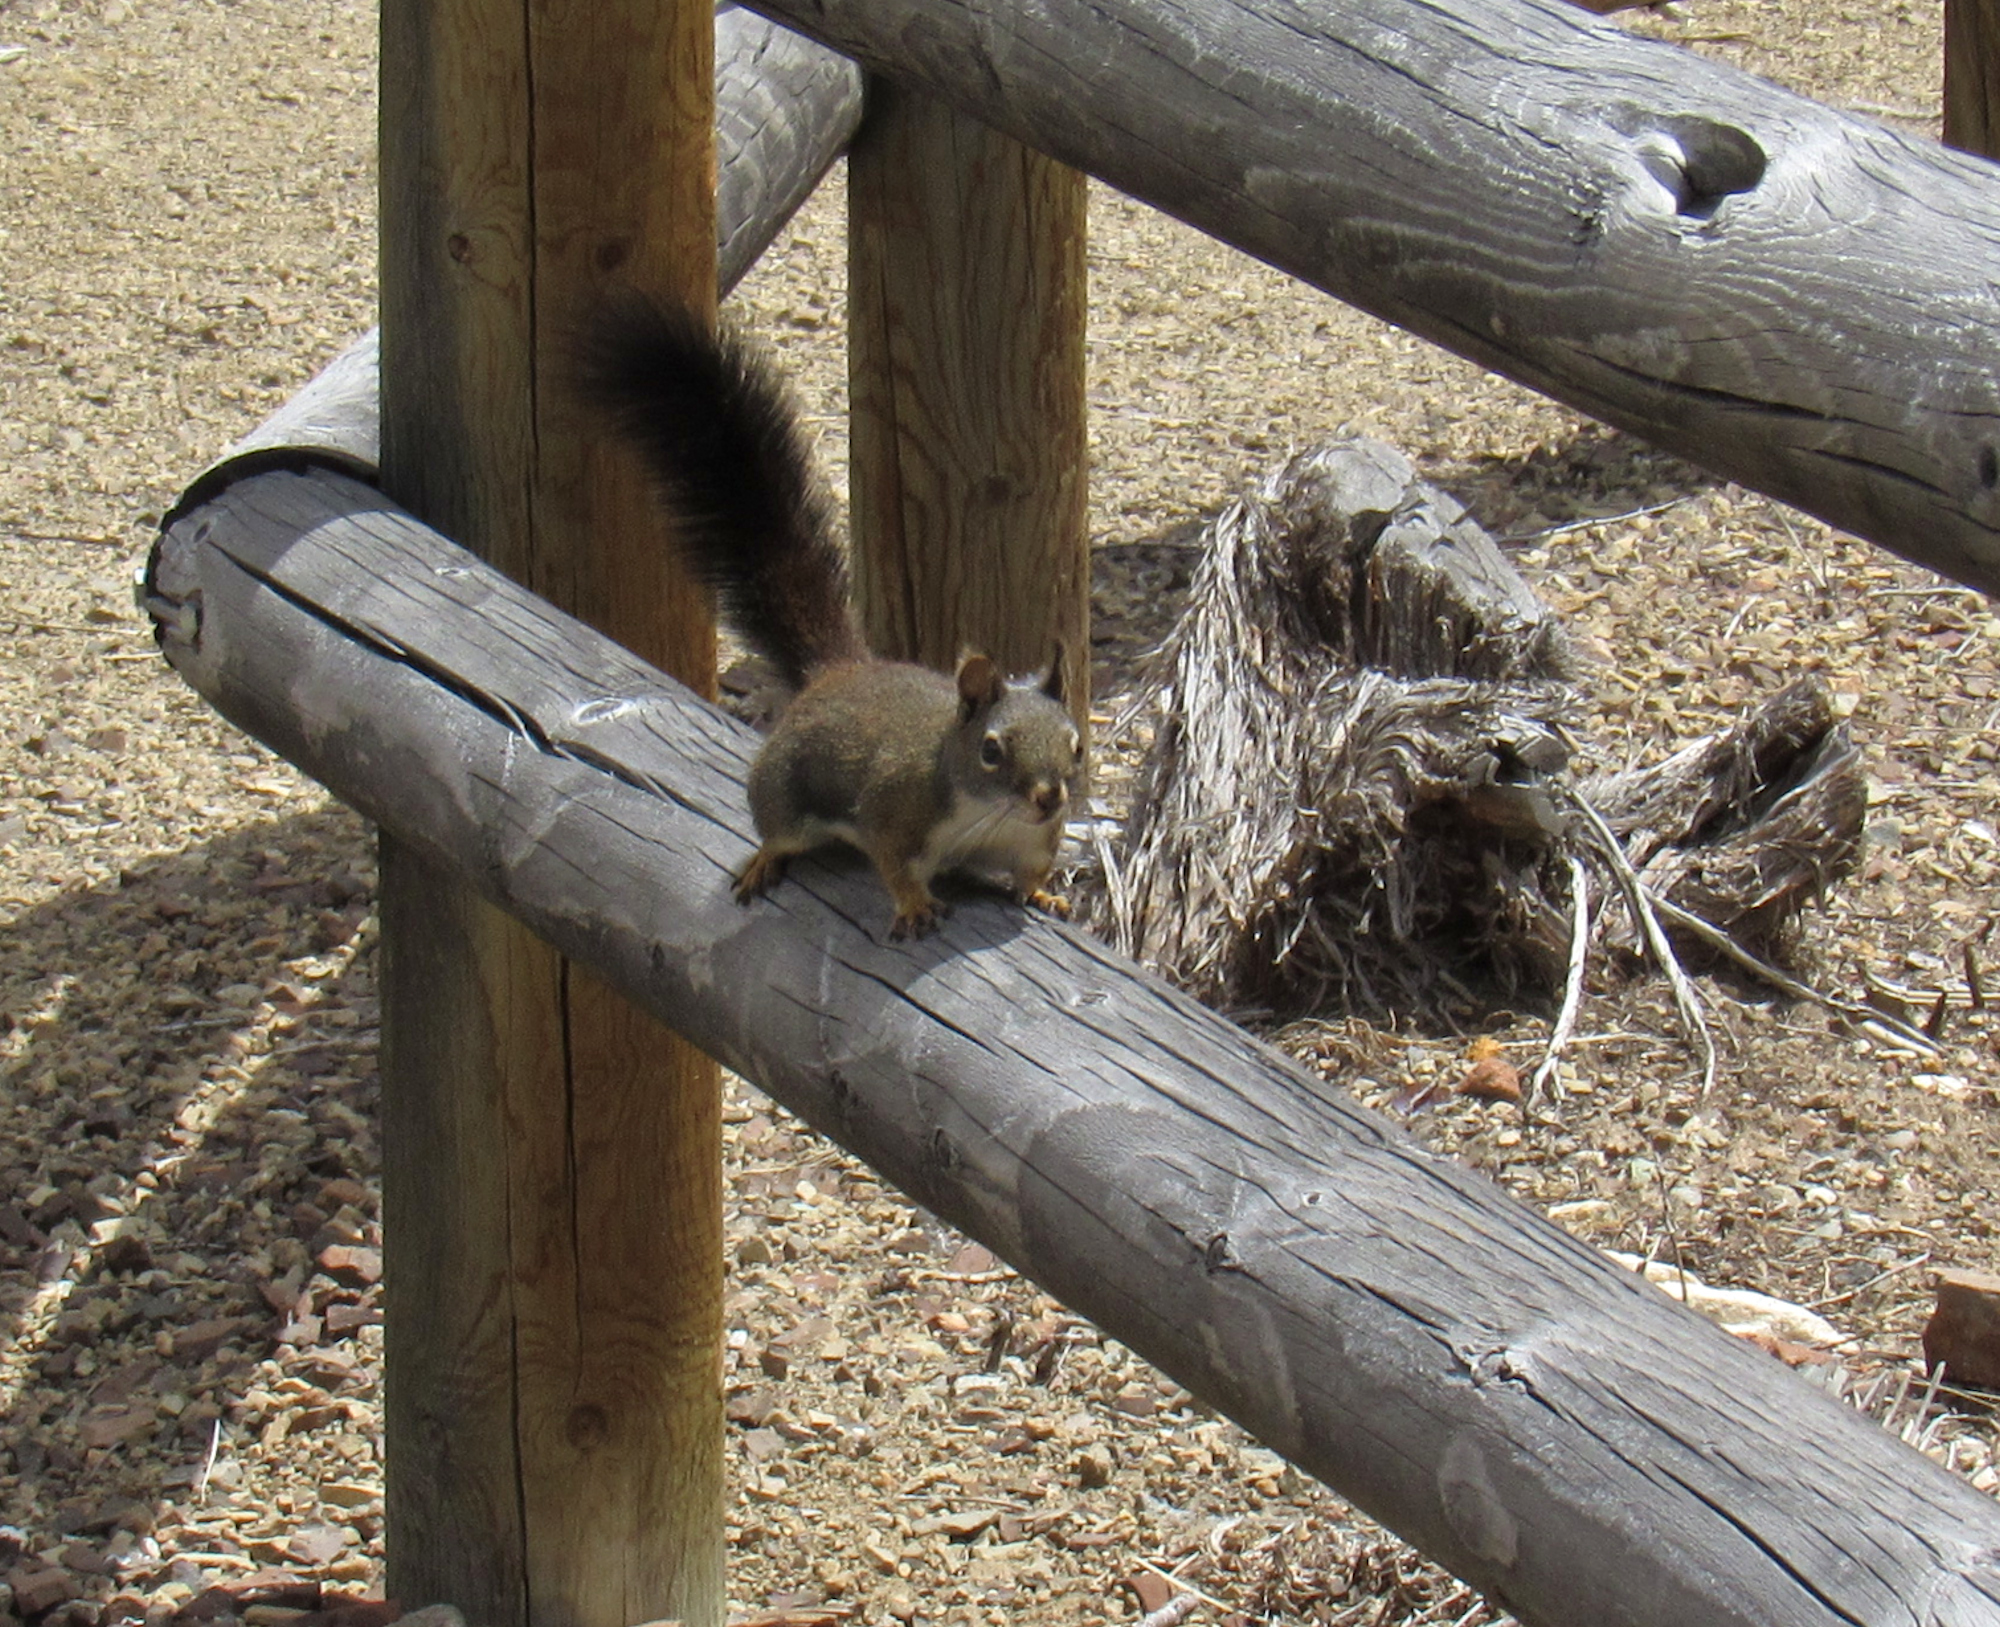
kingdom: Animalia
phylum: Chordata
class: Mammalia
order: Rodentia
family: Sciuridae
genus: Tamiasciurus
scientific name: Tamiasciurus hudsonicus
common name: Red squirrel
